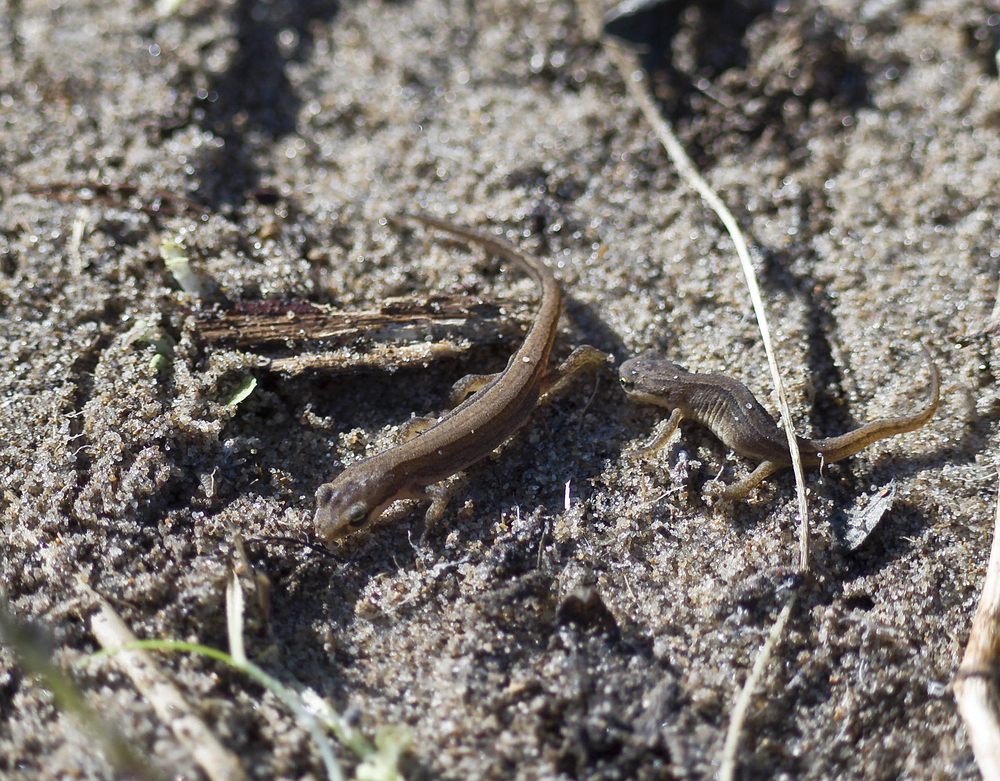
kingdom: Animalia
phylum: Chordata
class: Amphibia
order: Caudata
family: Salamandridae
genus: Lissotriton
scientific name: Lissotriton vulgaris
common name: Smooth newt
